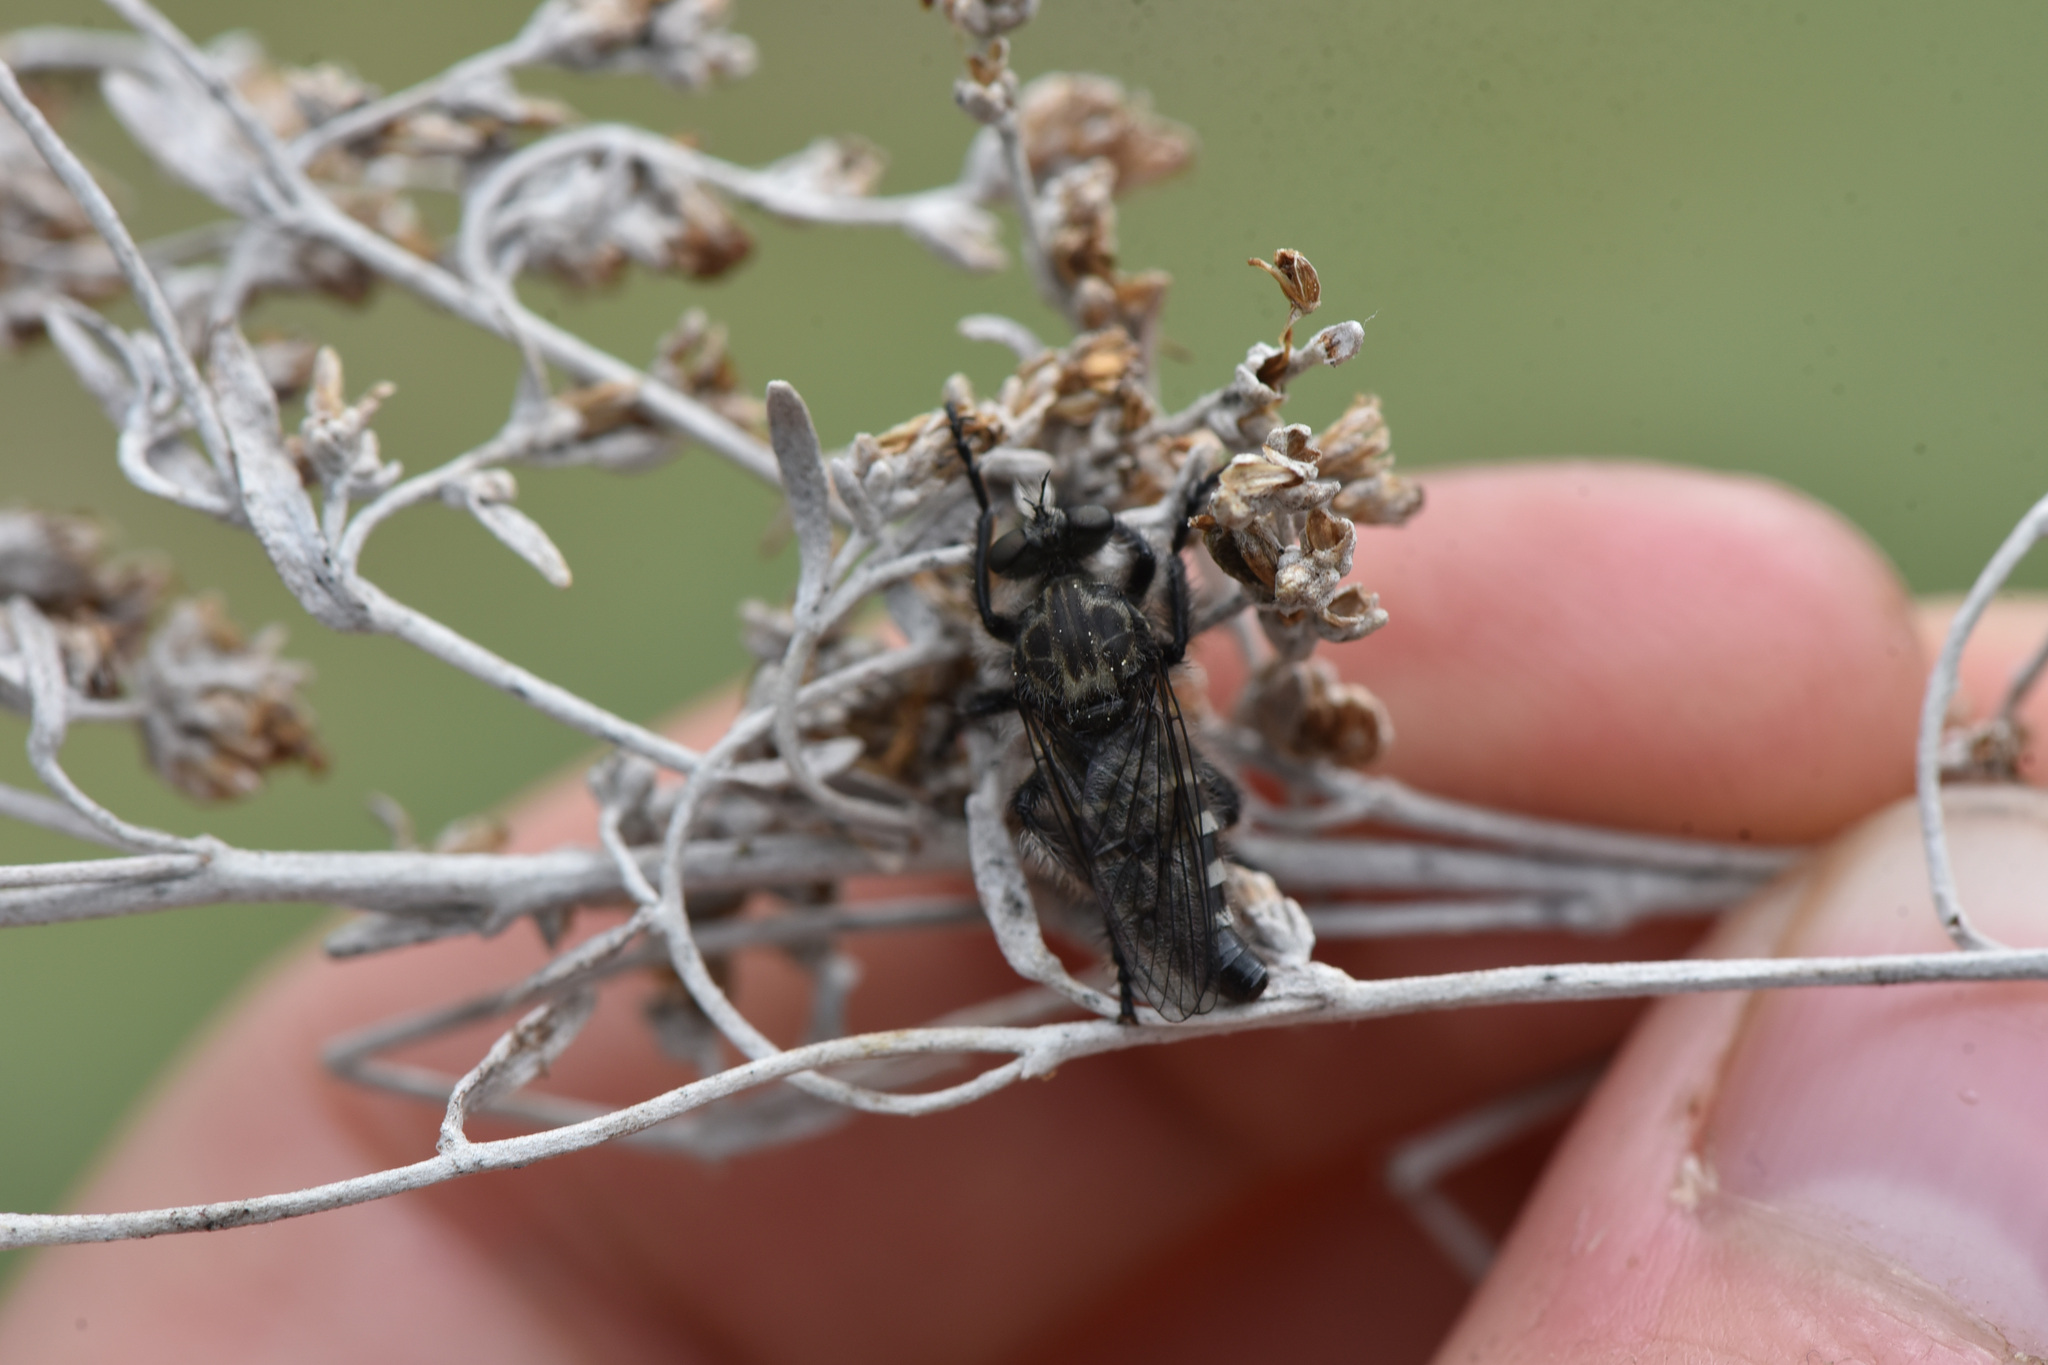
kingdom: Animalia
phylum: Arthropoda
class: Insecta
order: Diptera
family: Asilidae
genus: Cyrtopogon
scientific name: Cyrtopogon inversus
